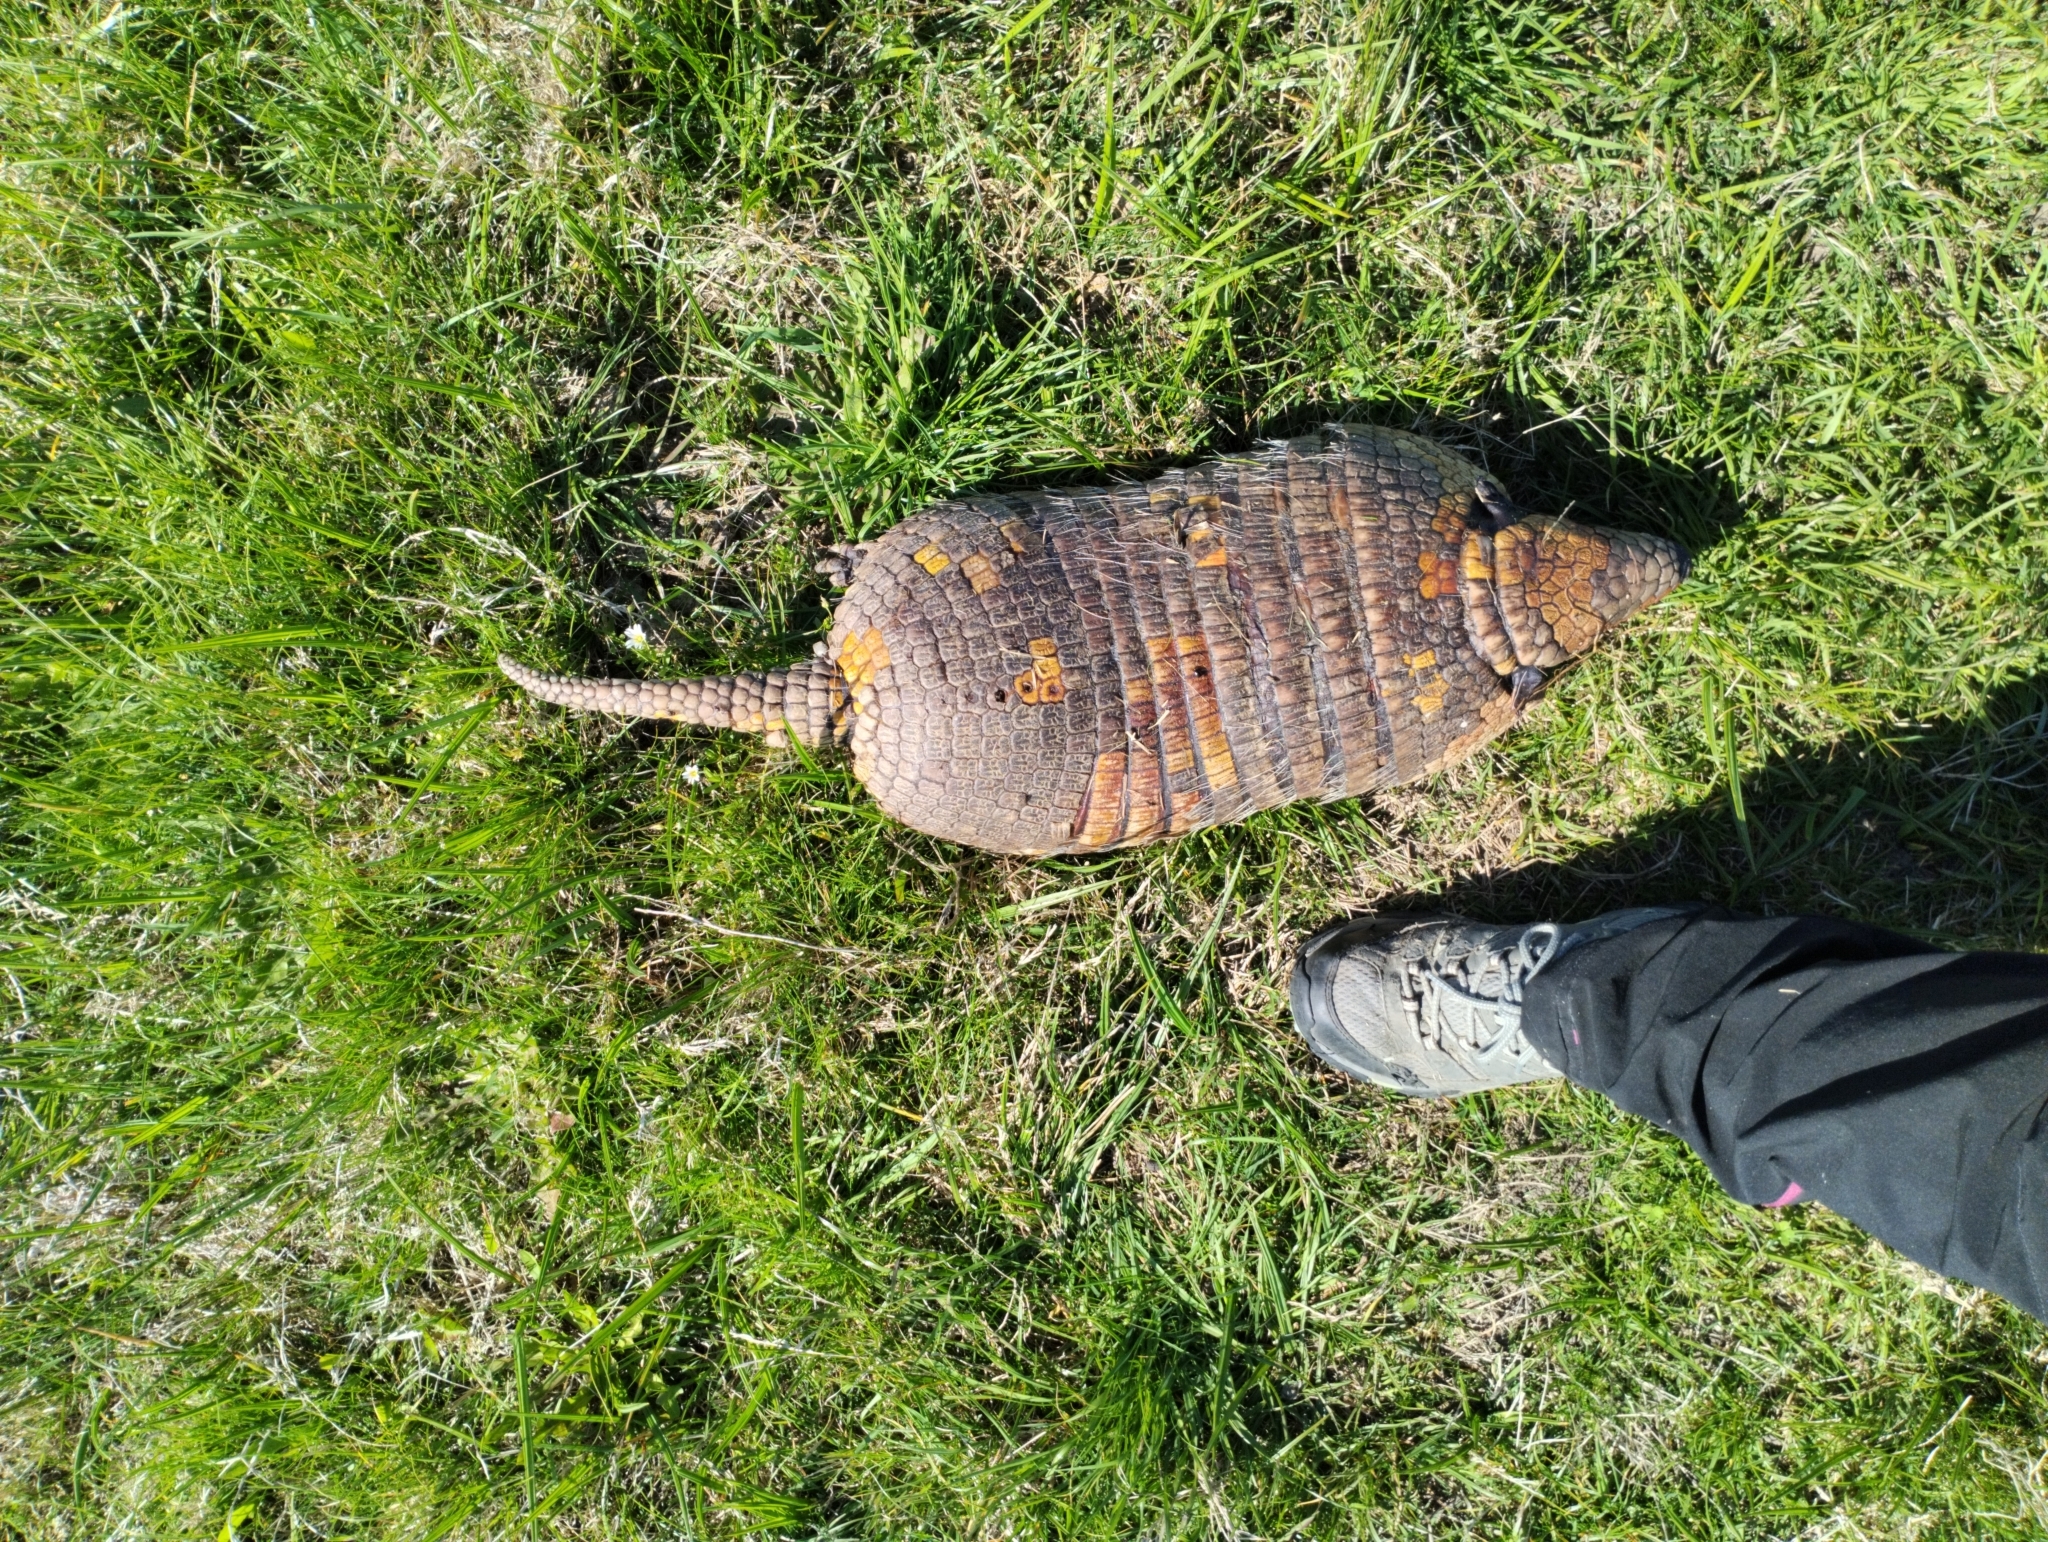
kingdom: Animalia
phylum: Chordata
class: Mammalia
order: Cingulata
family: Dasypodidae
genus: Euphractus
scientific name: Euphractus sexcinctus
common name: Six-banded armadillo
